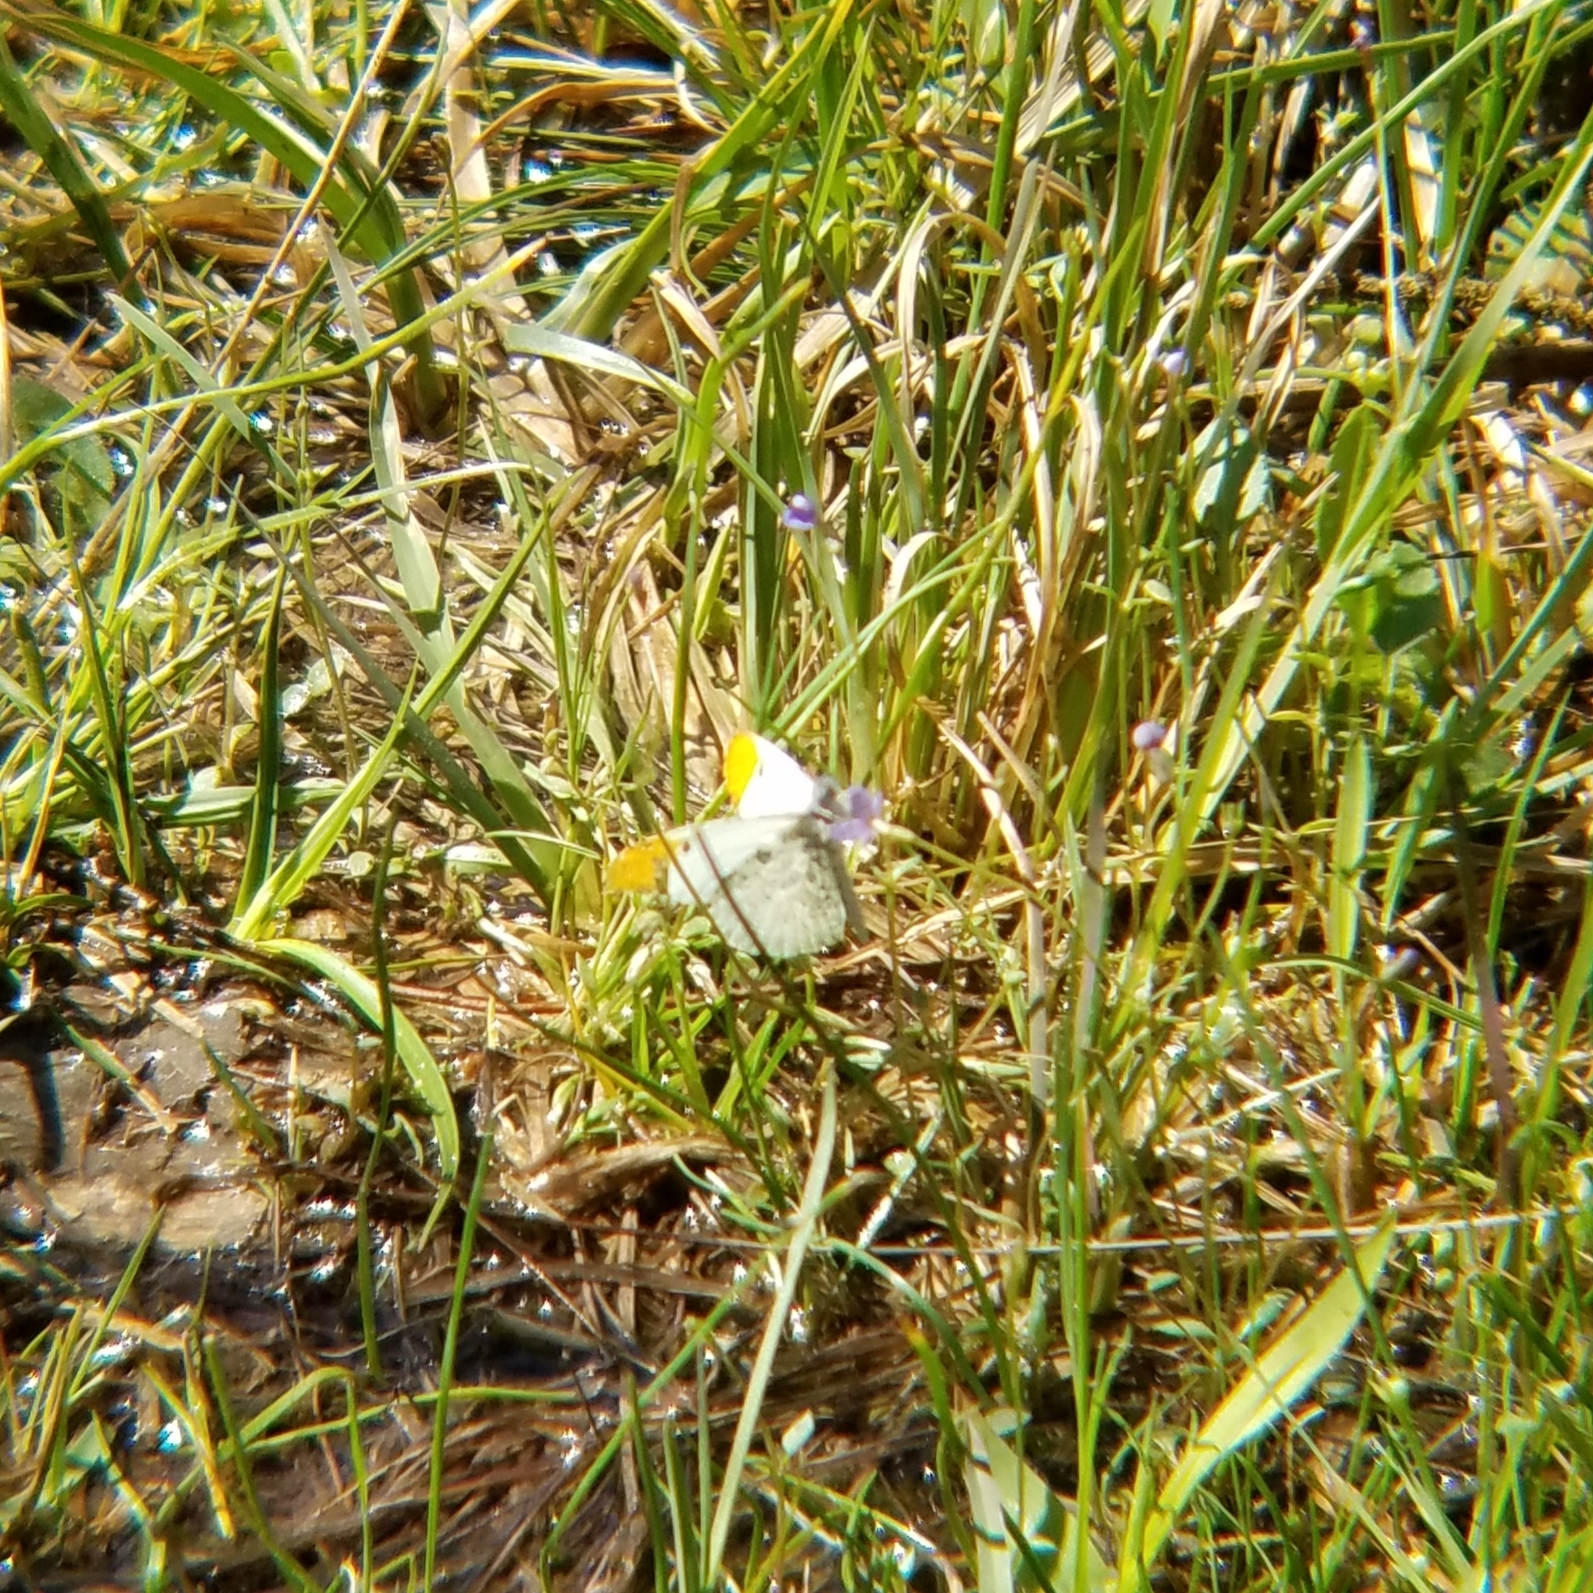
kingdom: Animalia
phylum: Arthropoda
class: Insecta
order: Lepidoptera
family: Pieridae
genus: Anthocharis
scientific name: Anthocharis midea
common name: Falcate orangetip
